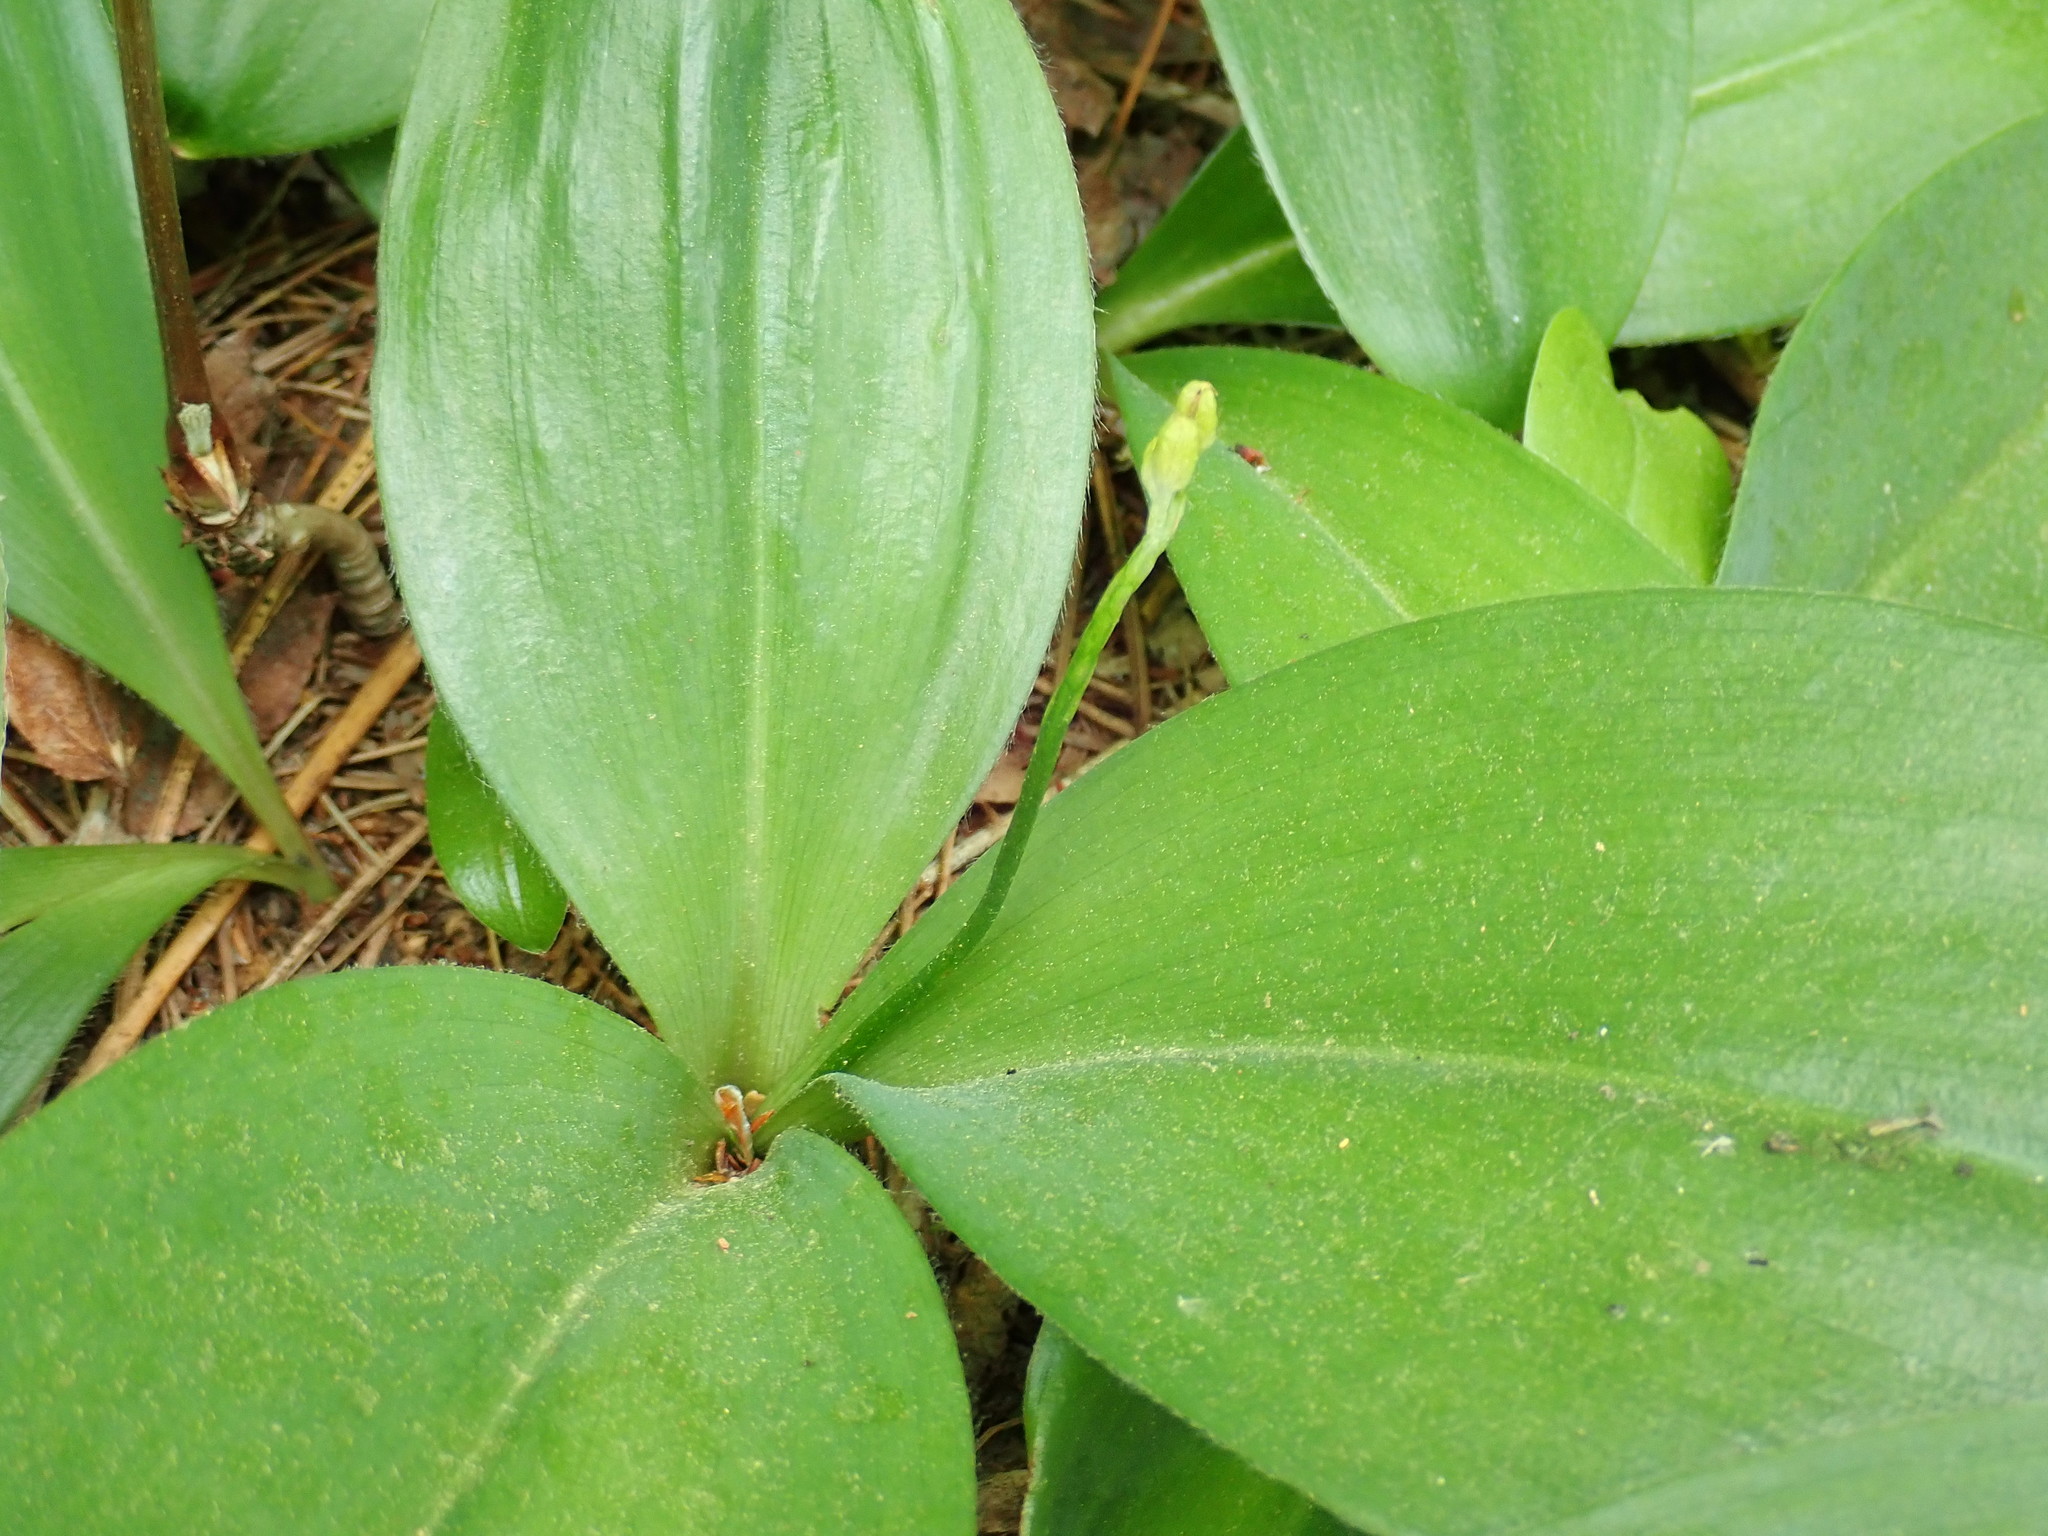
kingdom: Plantae
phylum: Tracheophyta
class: Liliopsida
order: Liliales
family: Liliaceae
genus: Clintonia
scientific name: Clintonia borealis
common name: Yellow clintonia
